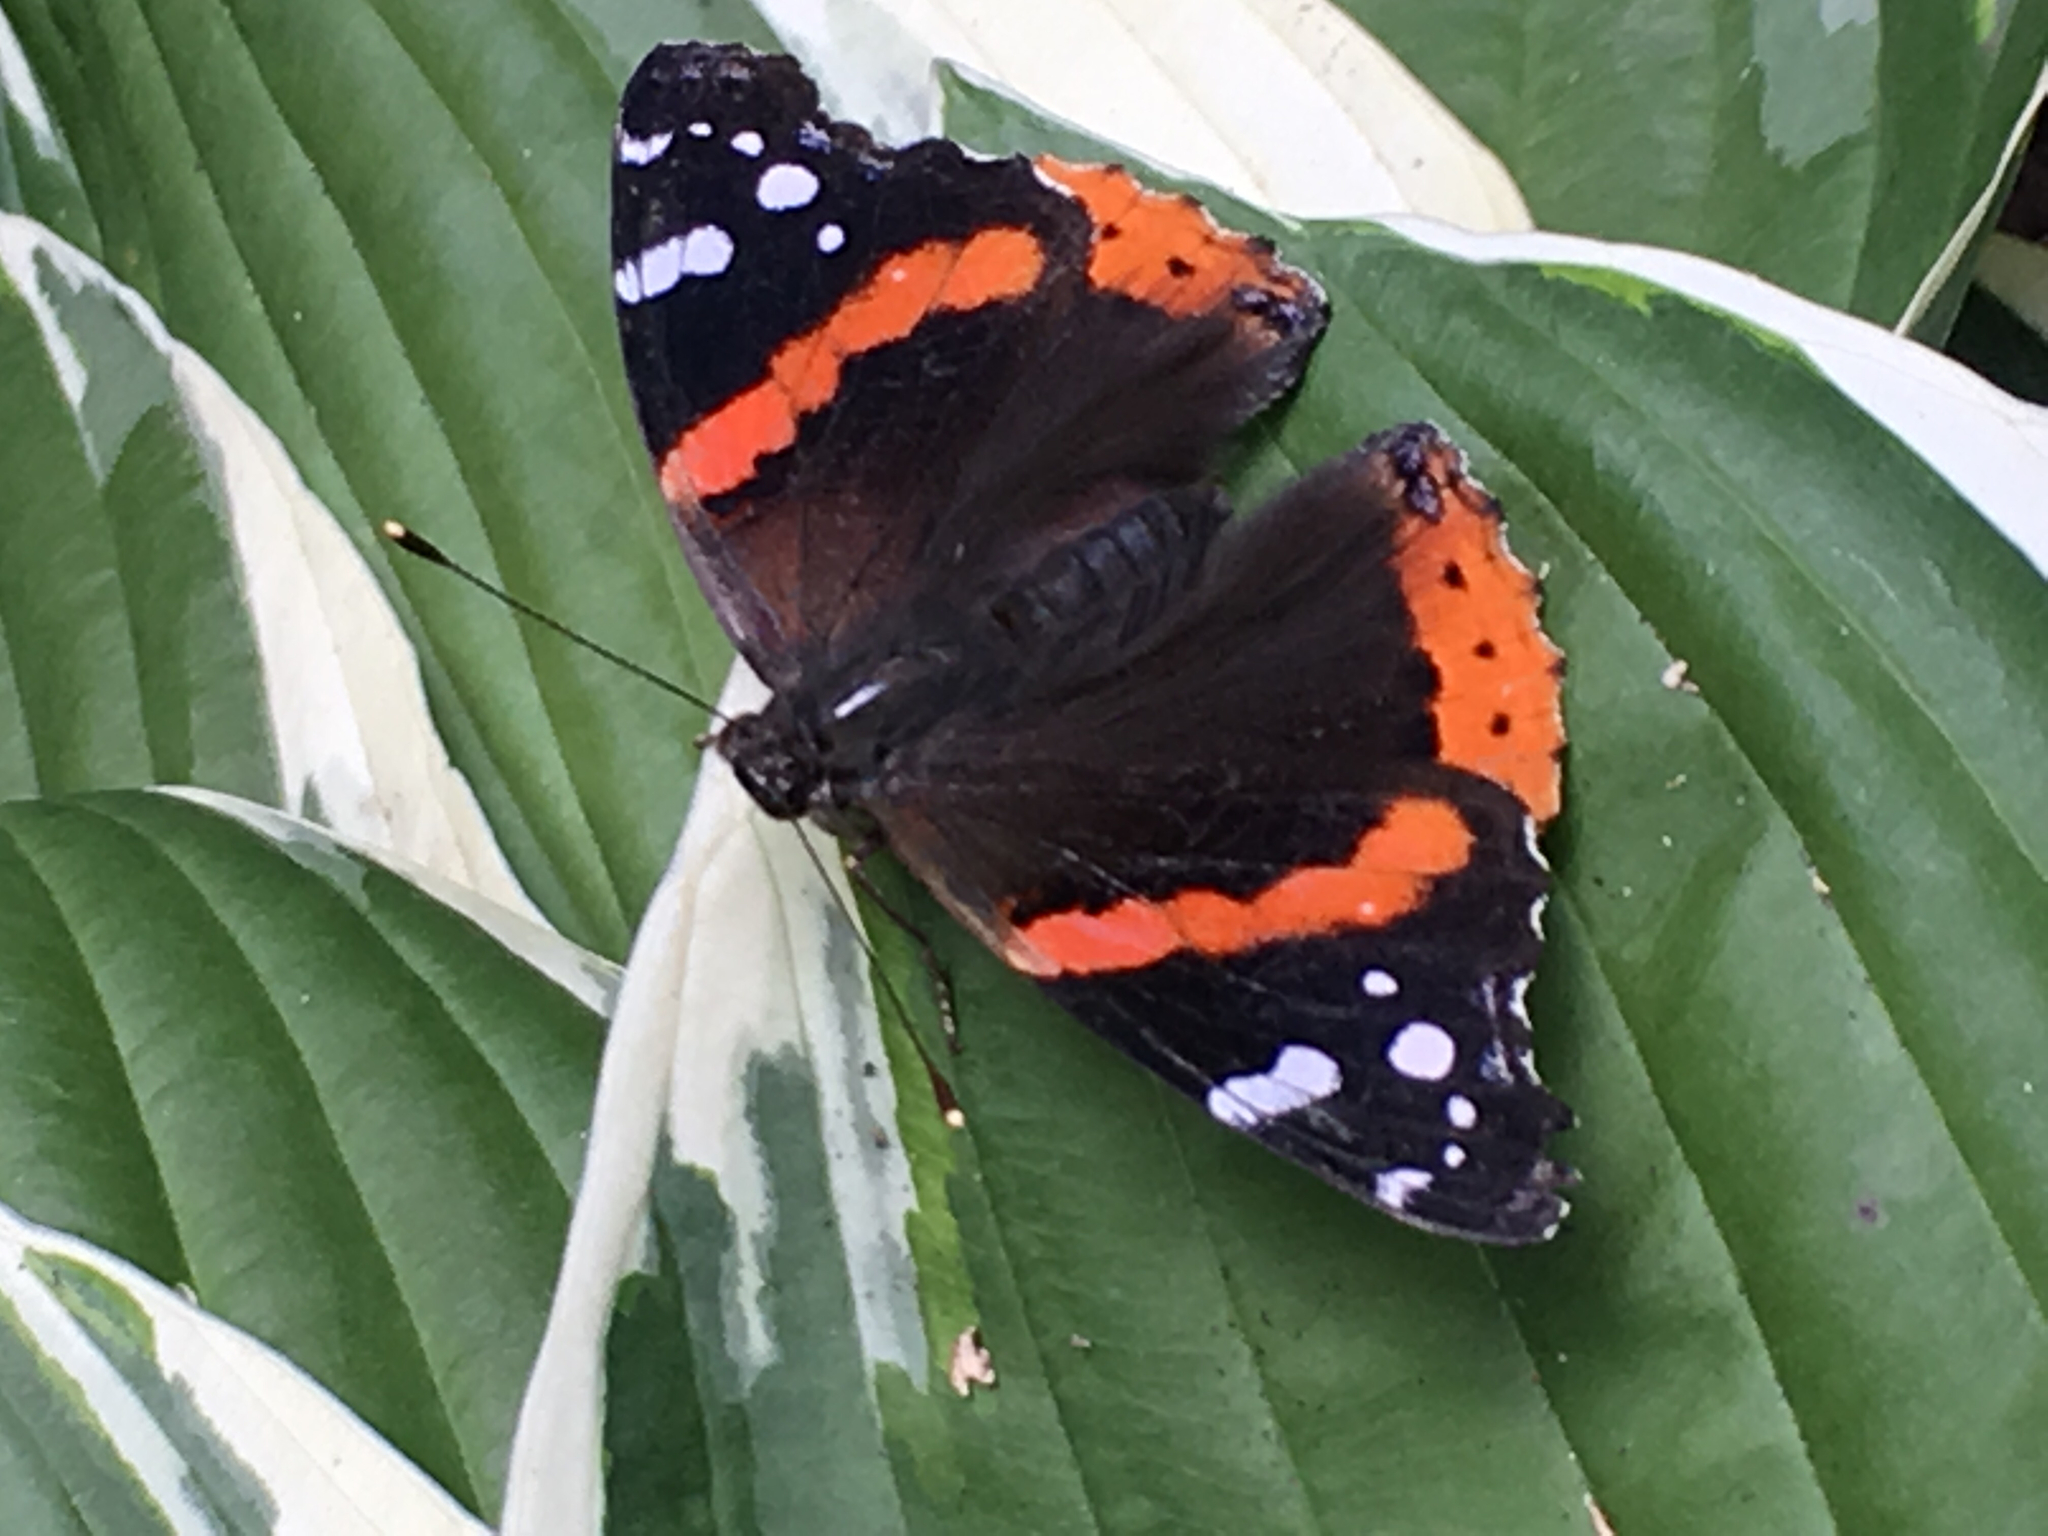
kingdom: Animalia
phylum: Arthropoda
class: Insecta
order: Lepidoptera
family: Nymphalidae
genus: Vanessa
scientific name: Vanessa atalanta
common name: Red admiral
